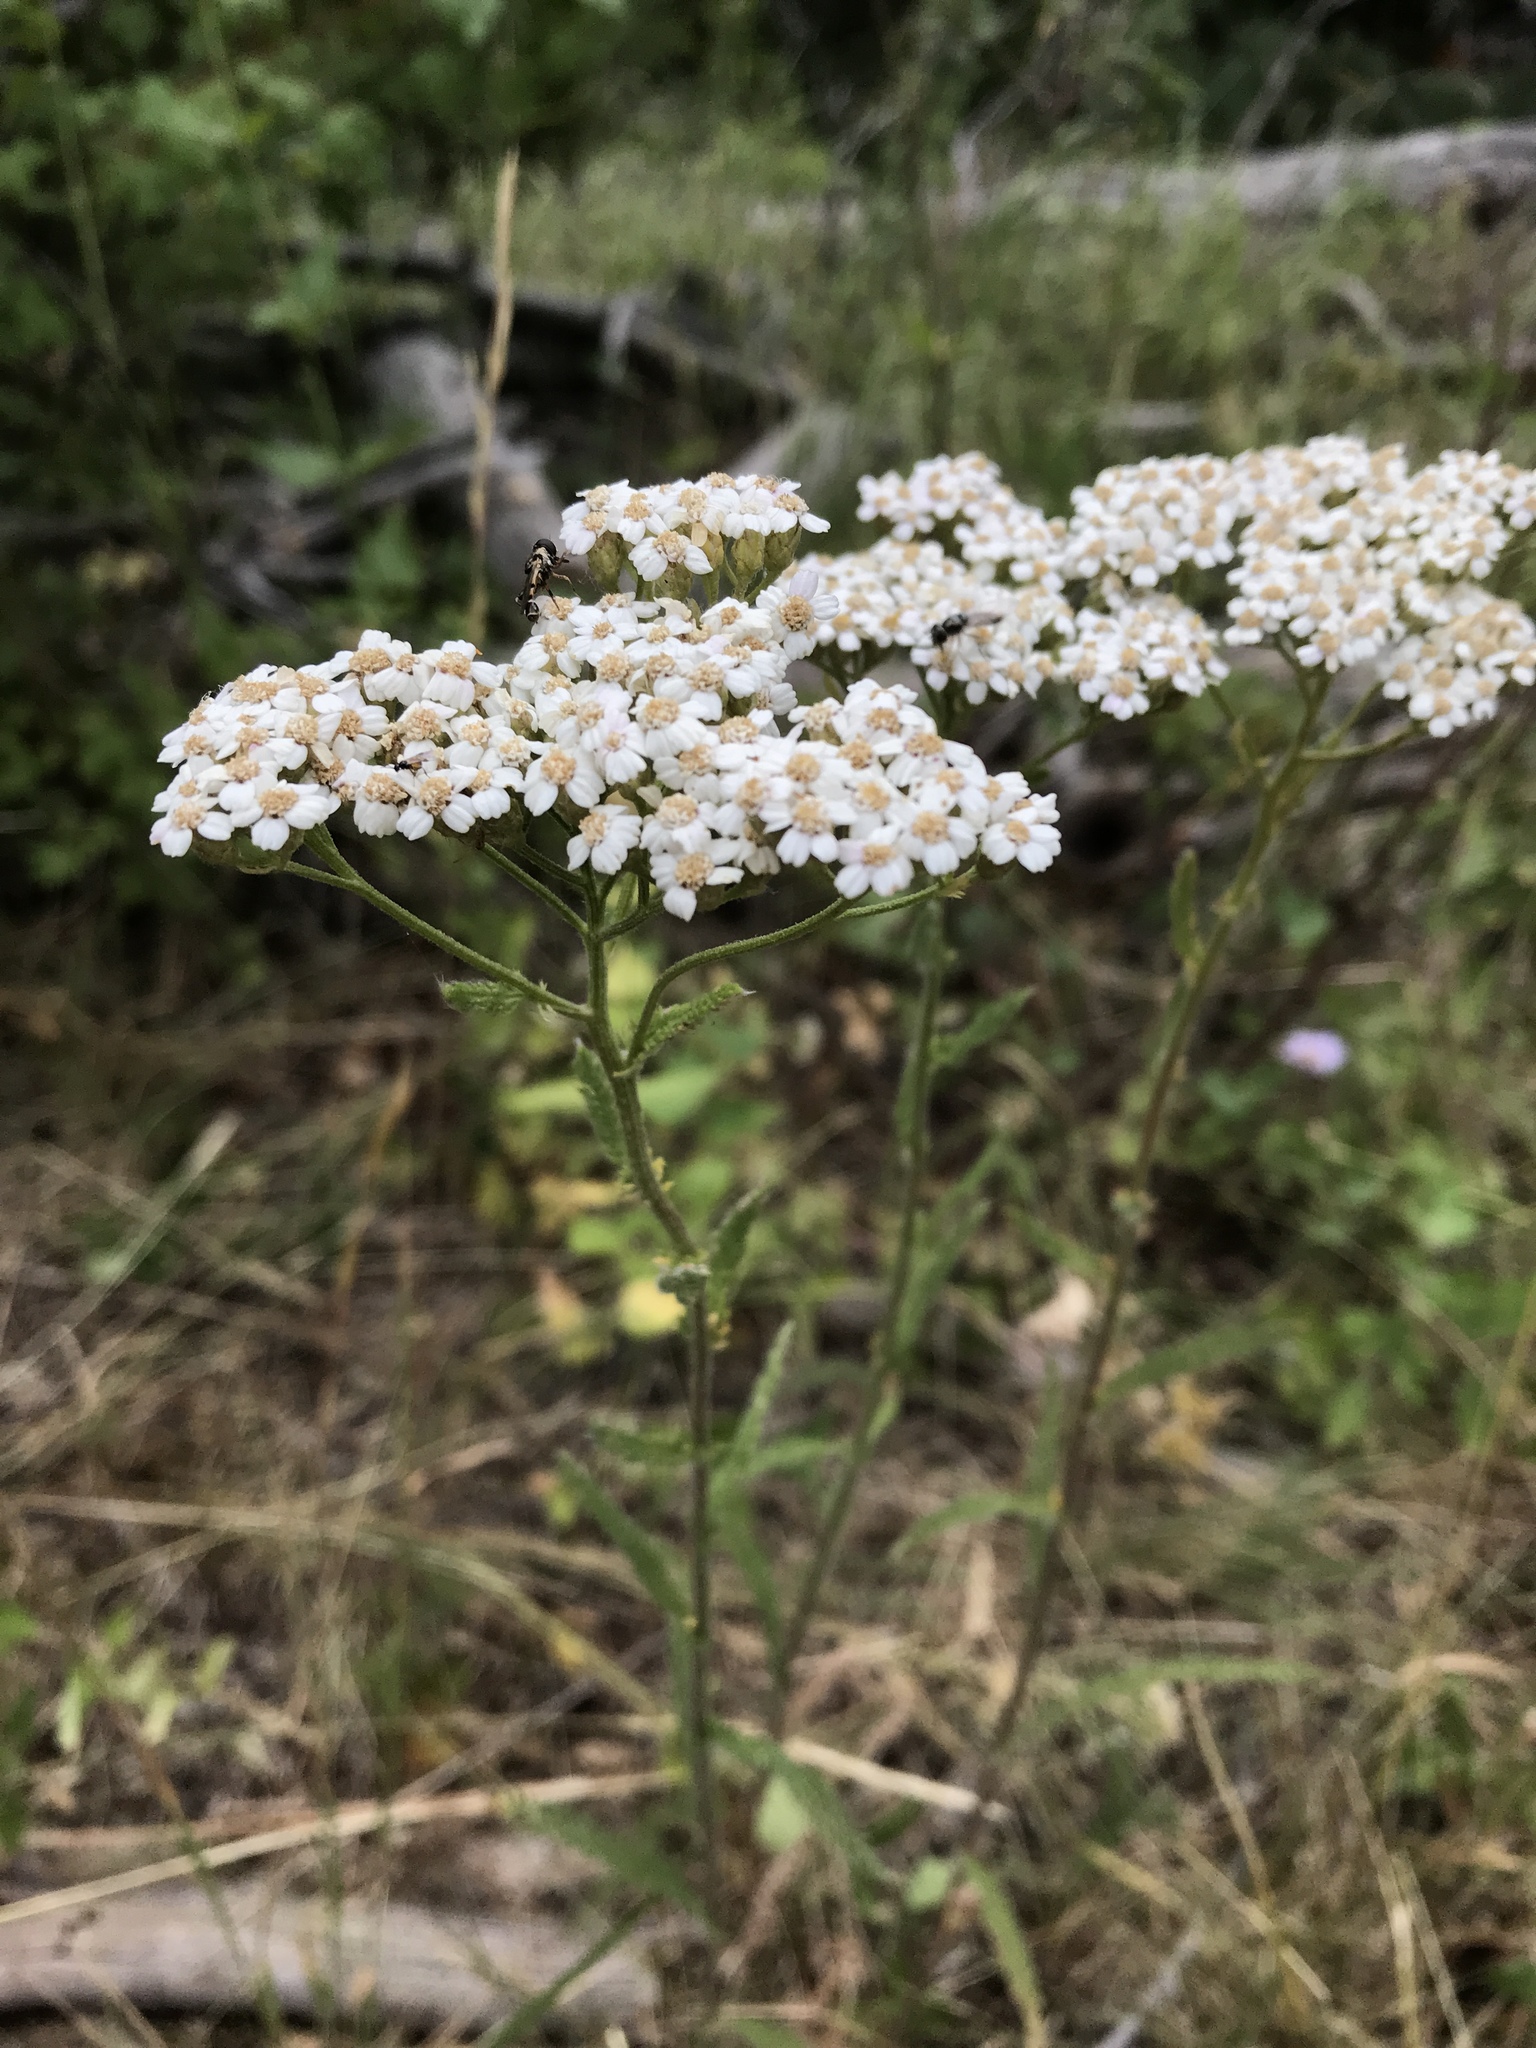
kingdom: Plantae
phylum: Tracheophyta
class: Magnoliopsida
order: Asterales
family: Asteraceae
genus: Achillea
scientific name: Achillea millefolium
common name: Yarrow
